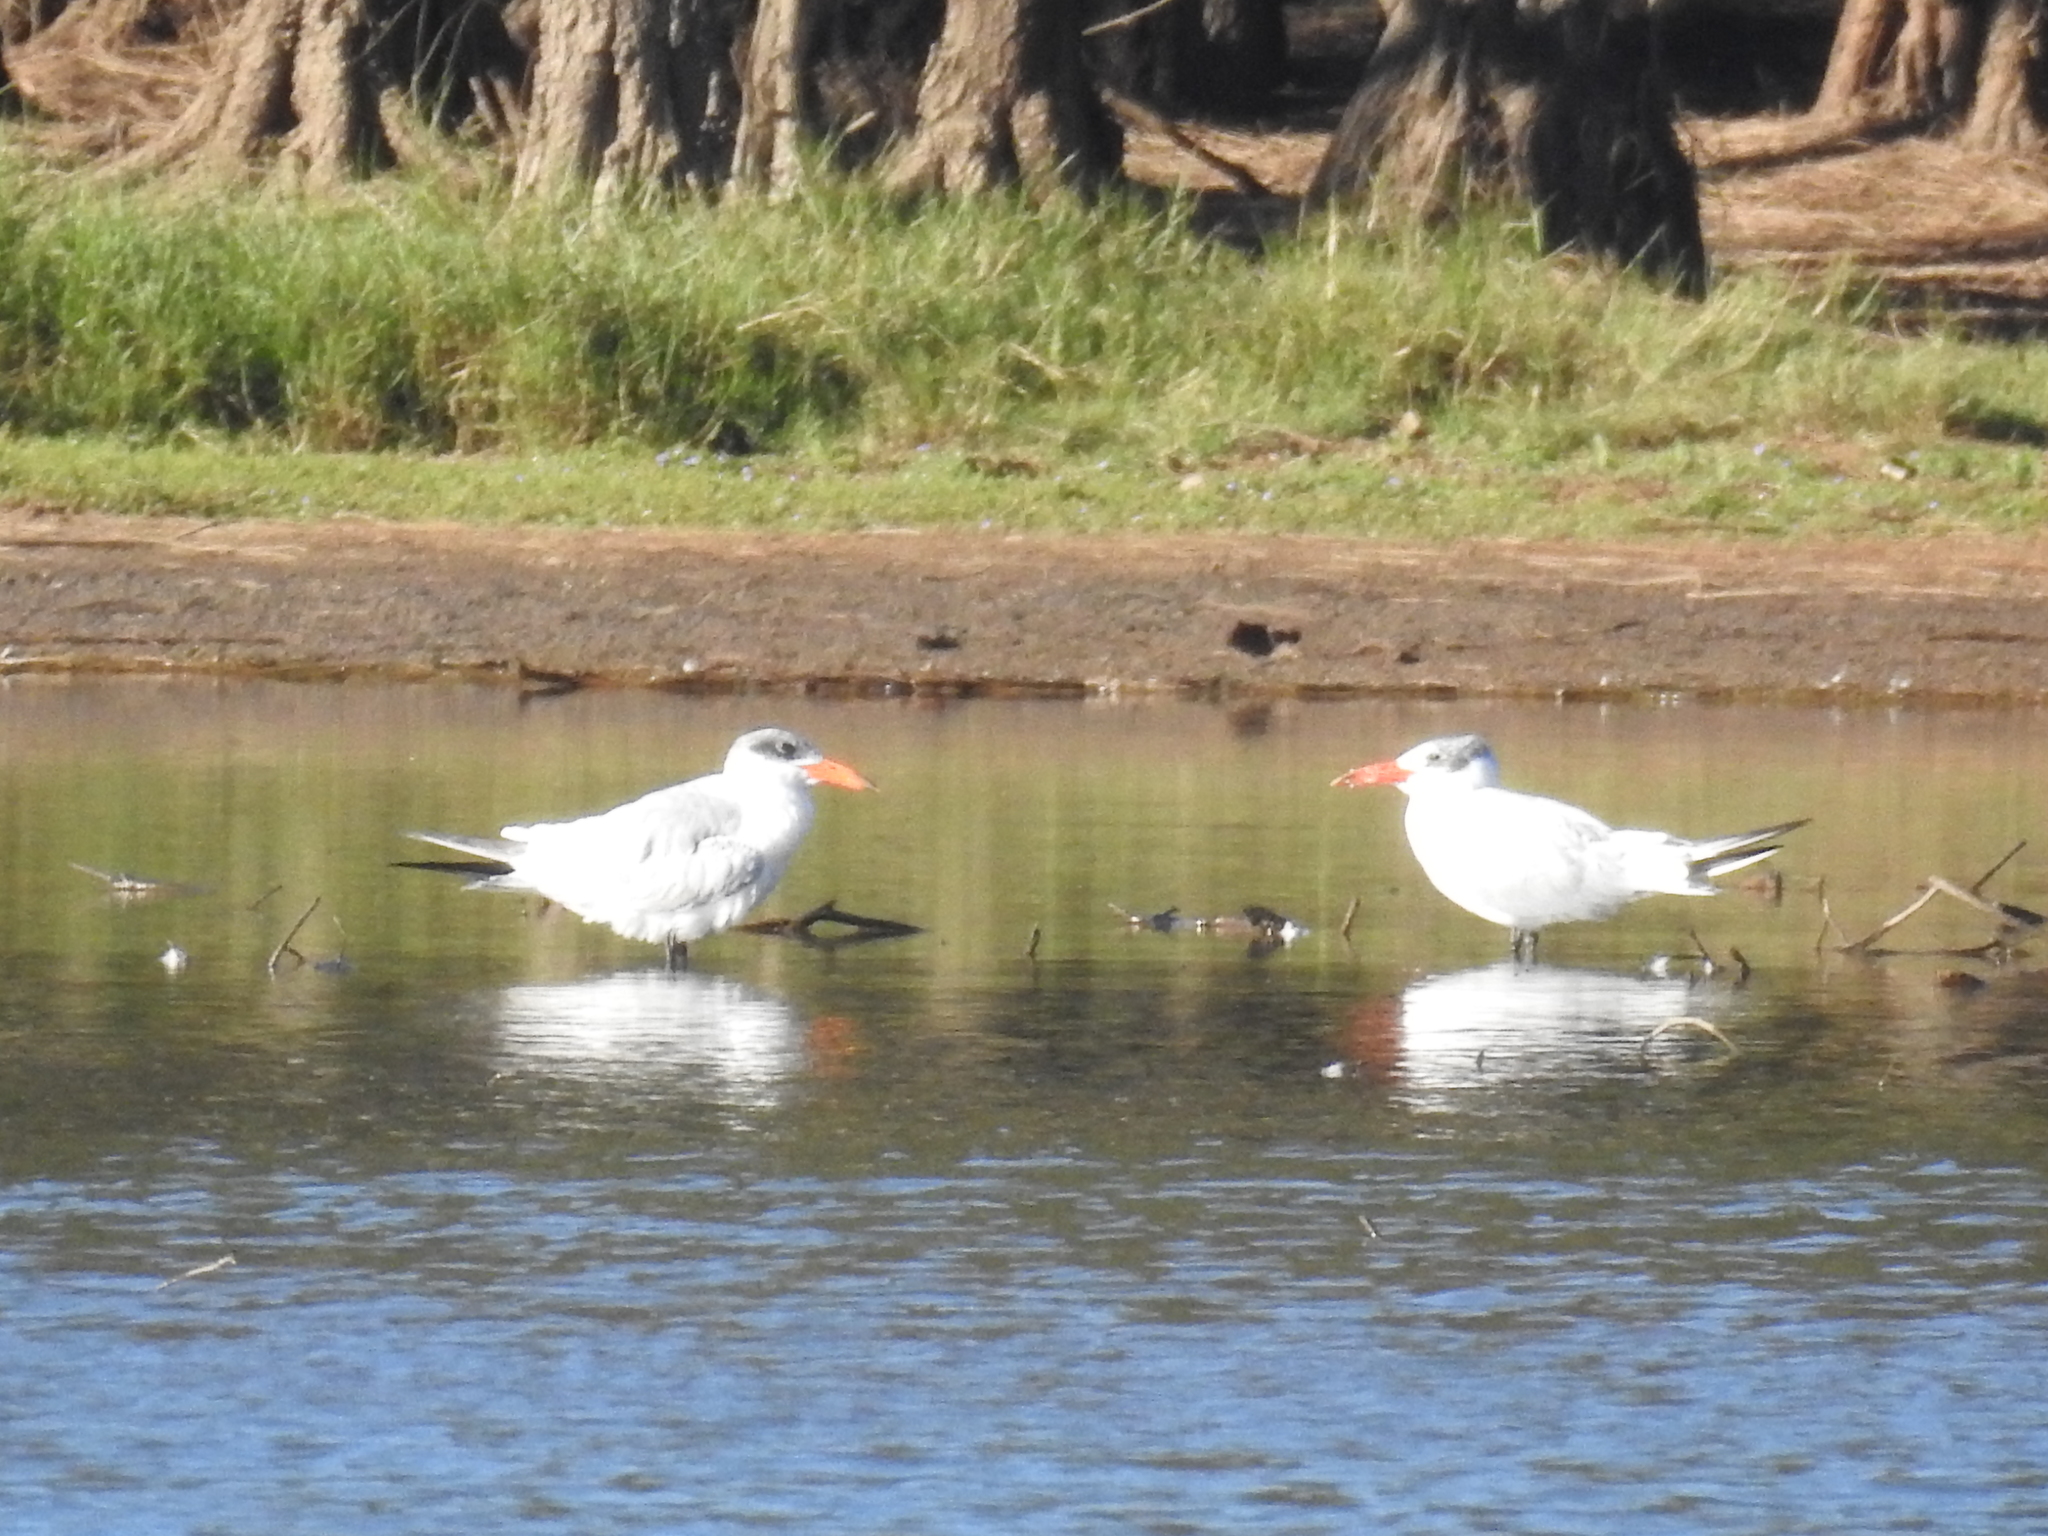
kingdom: Animalia
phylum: Chordata
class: Aves
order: Charadriiformes
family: Laridae
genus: Hydroprogne
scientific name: Hydroprogne caspia
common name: Caspian tern
